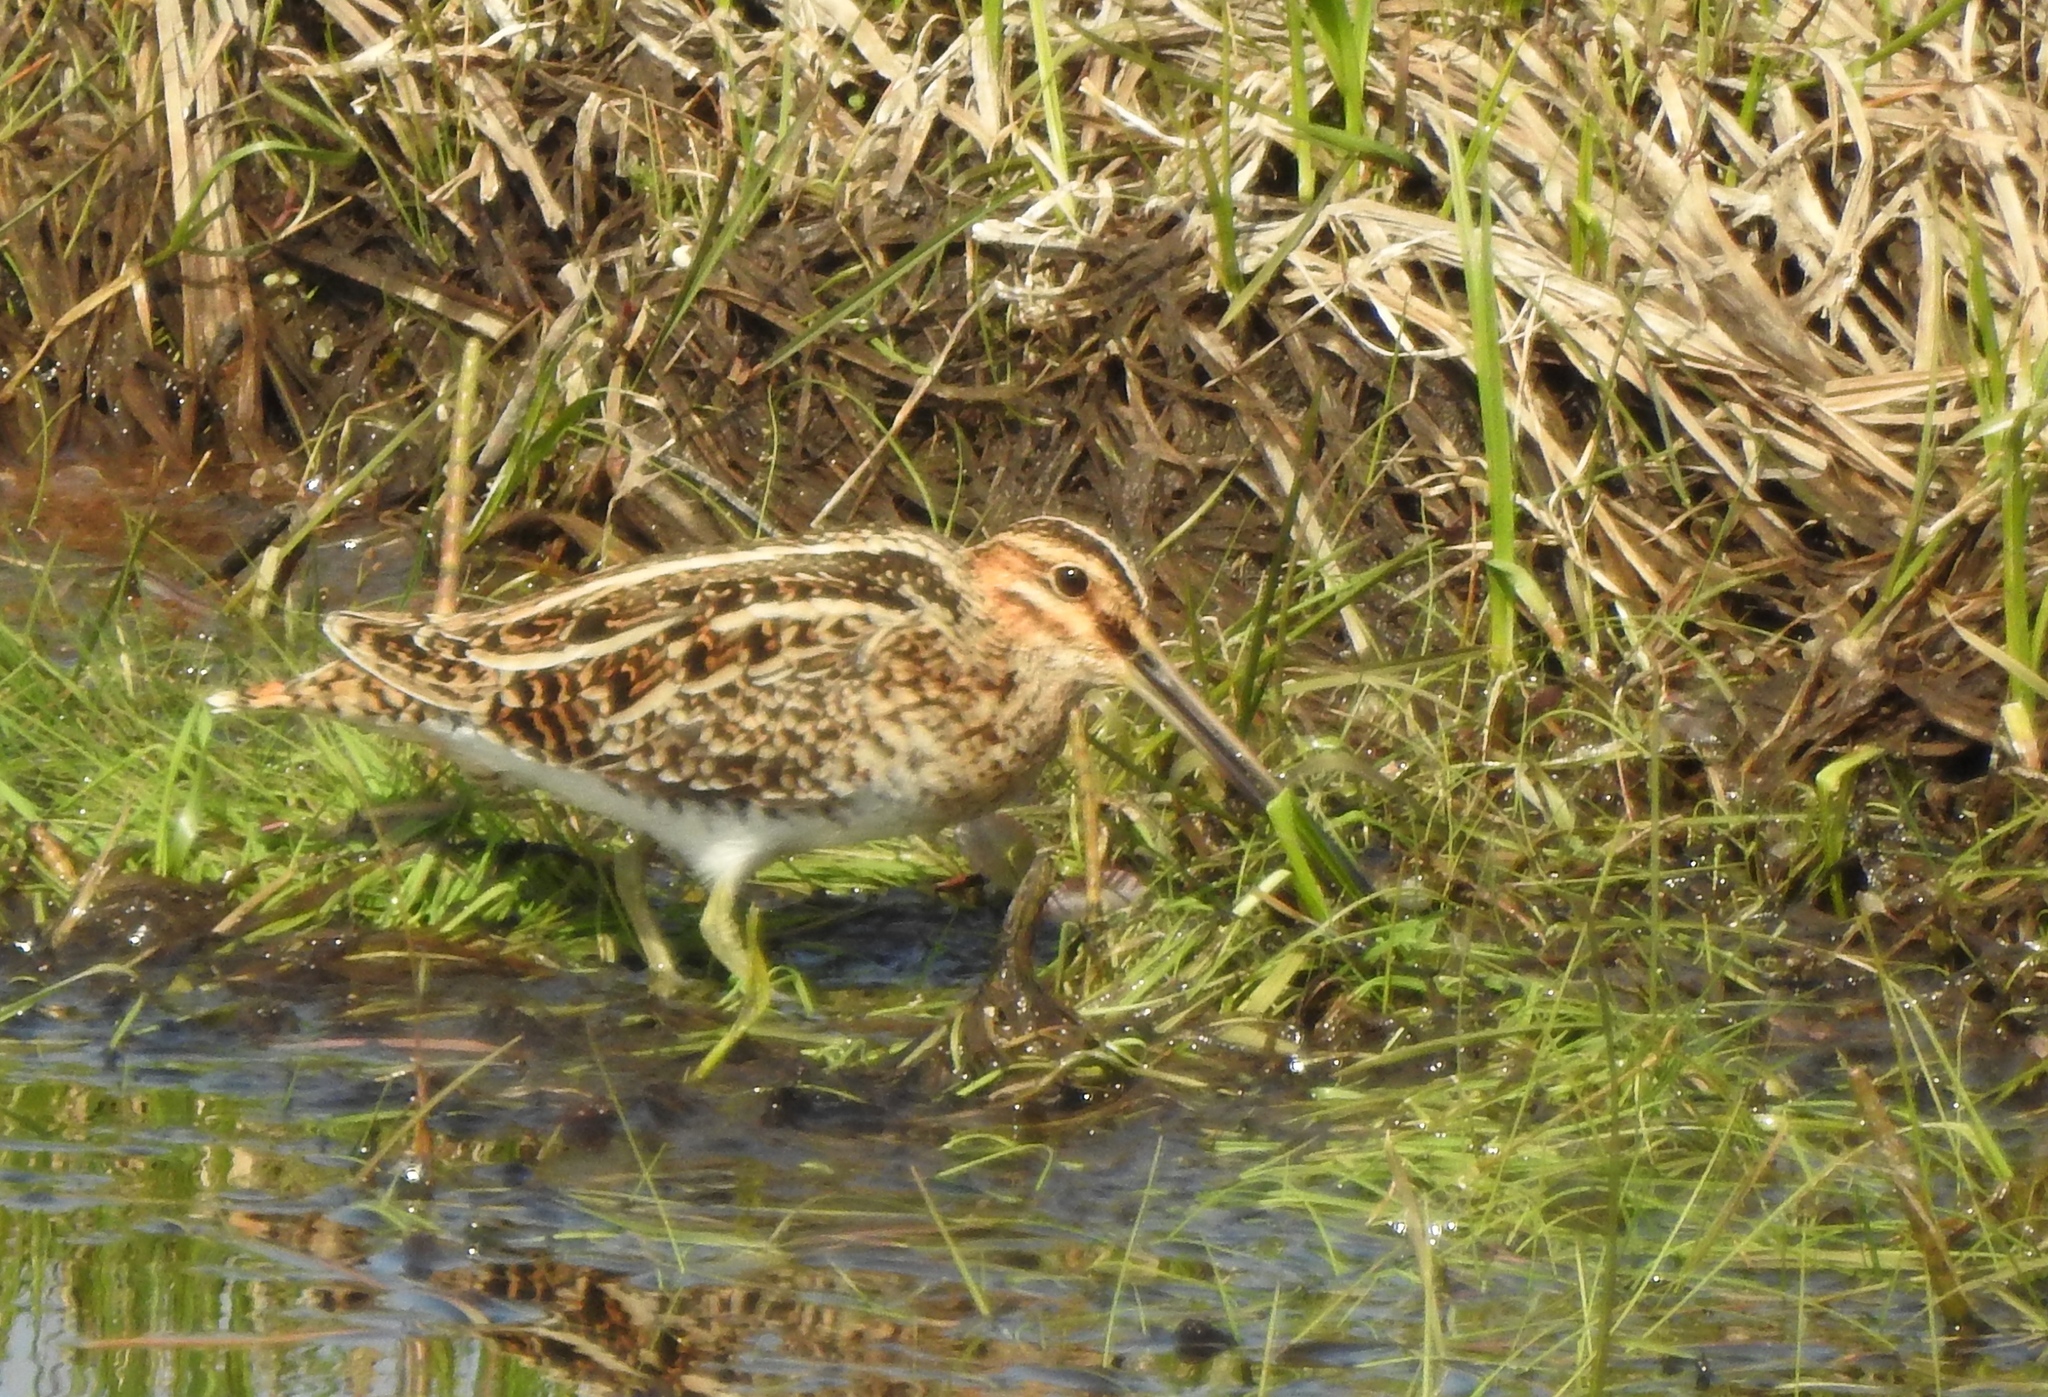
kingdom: Animalia
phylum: Chordata
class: Aves
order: Charadriiformes
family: Scolopacidae
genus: Gallinago
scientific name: Gallinago gallinago
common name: Common snipe
